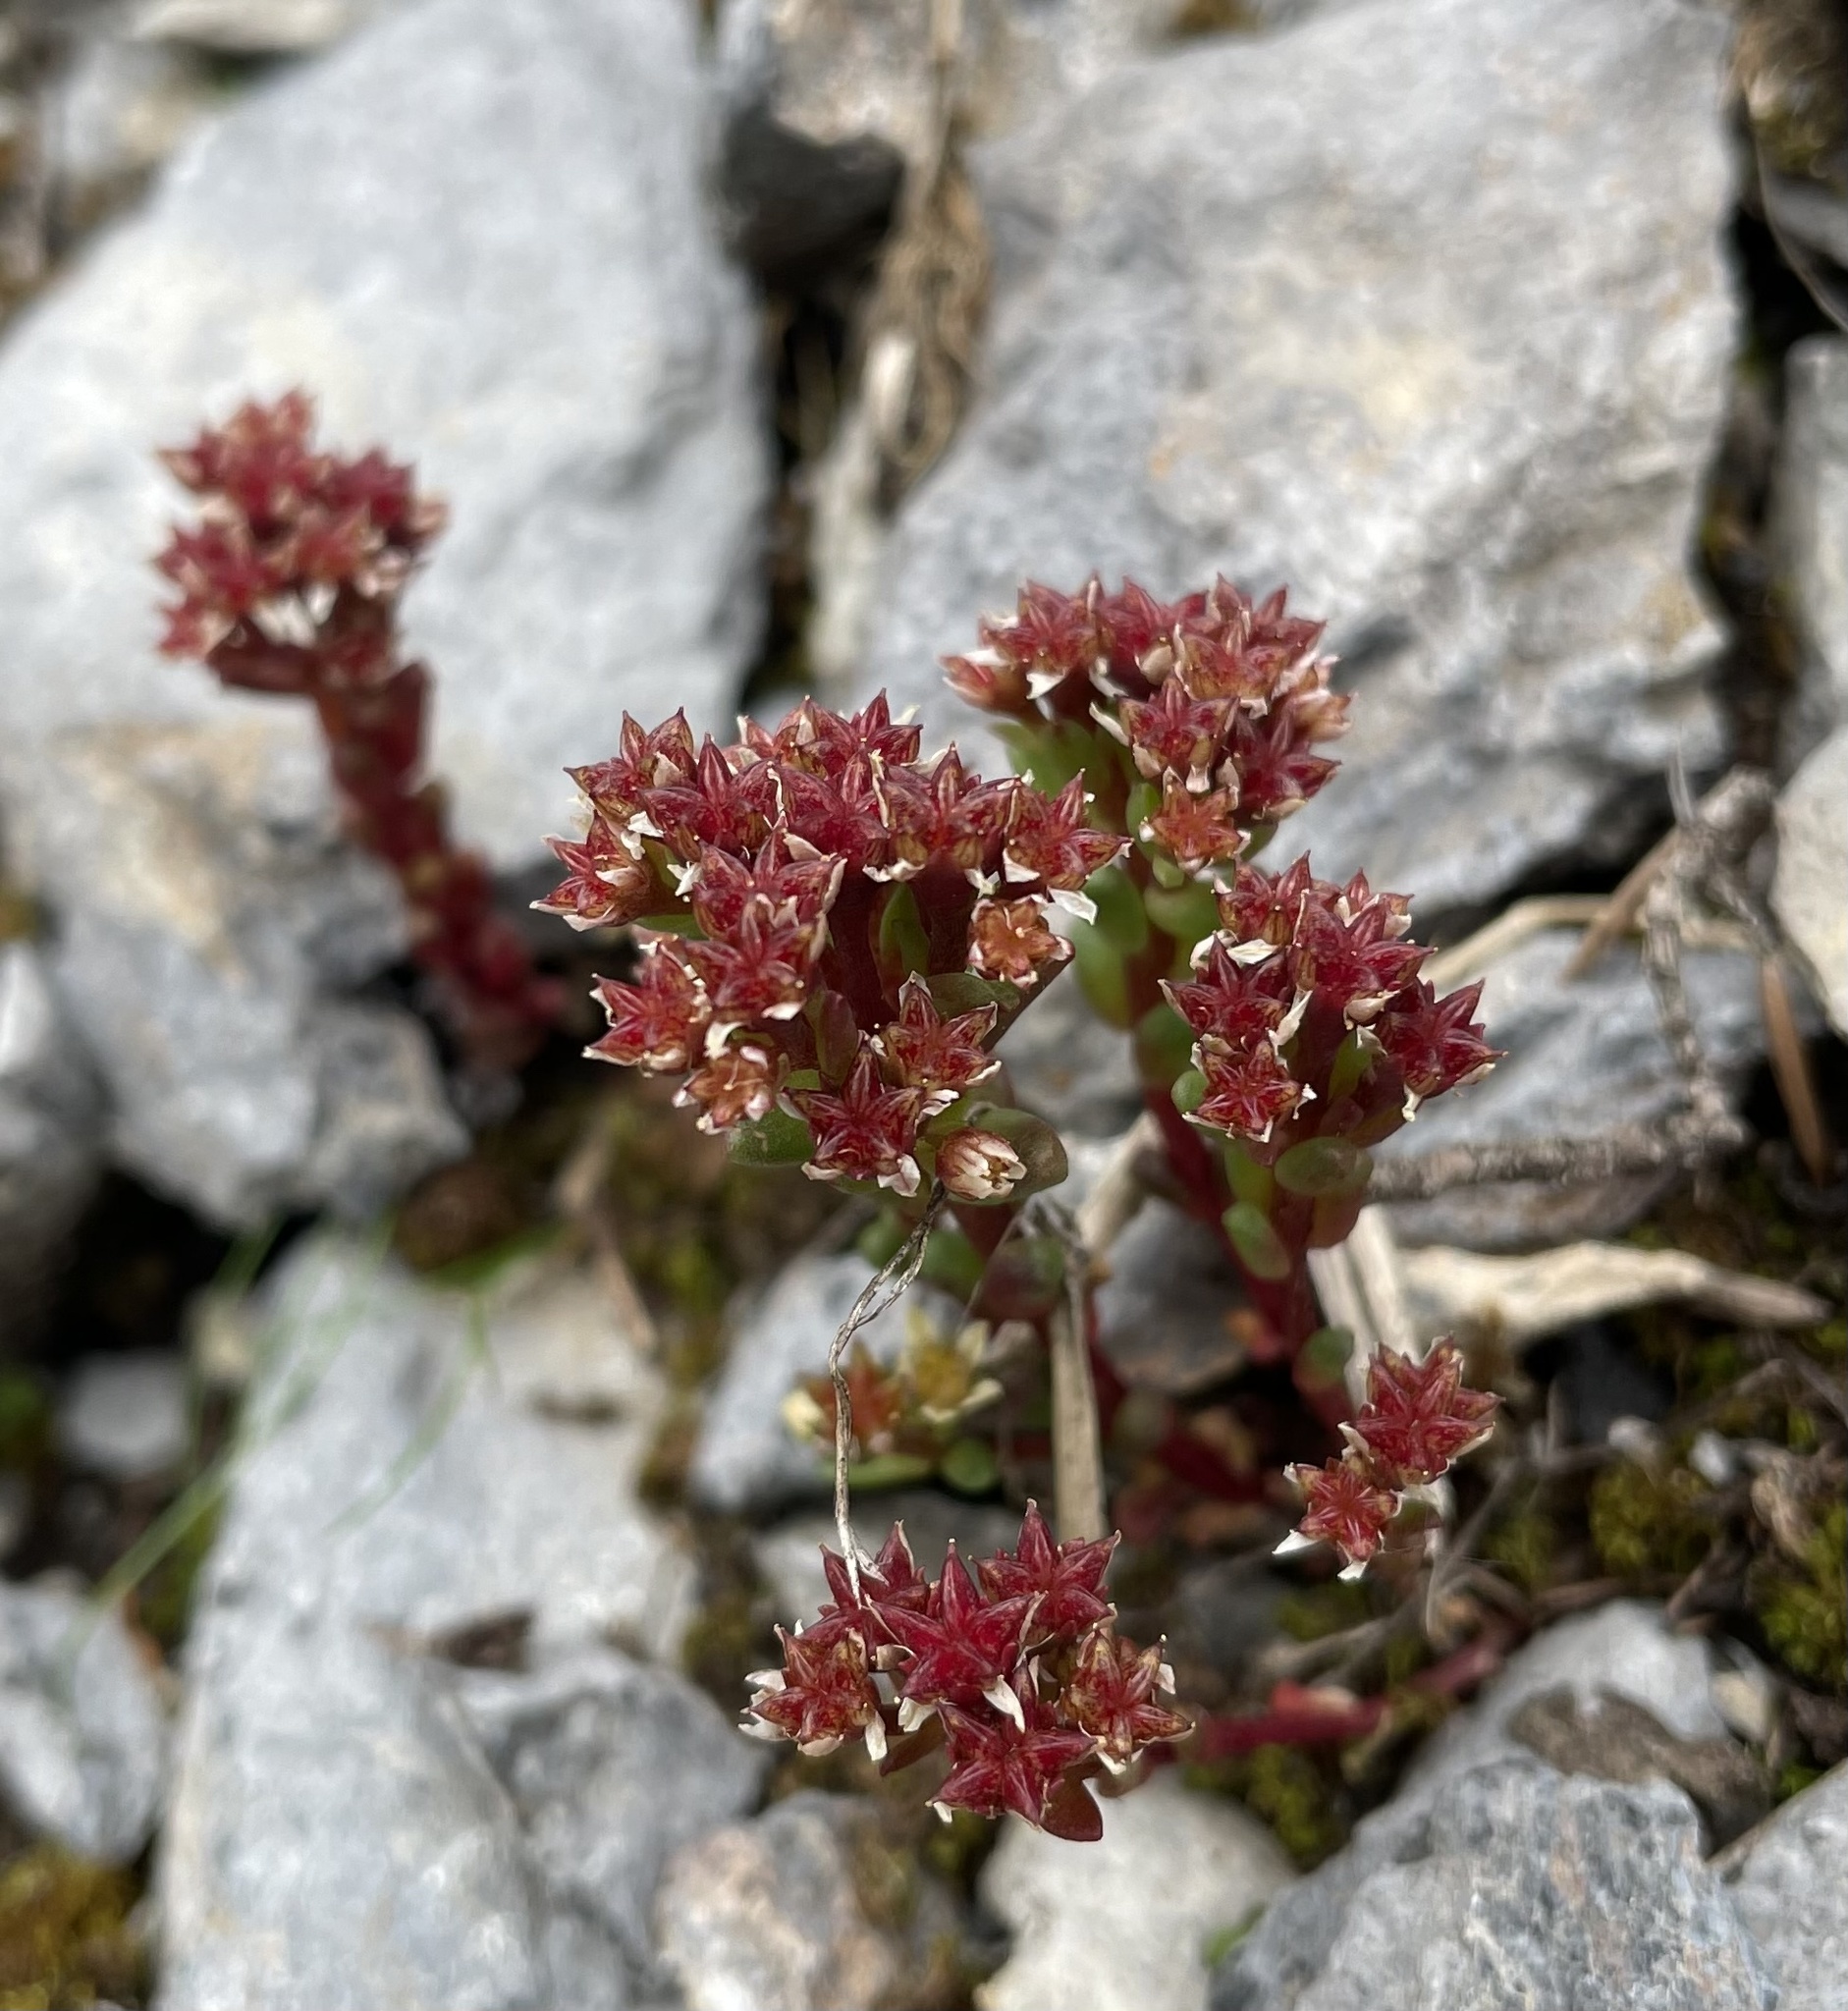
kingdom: Plantae
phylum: Tracheophyta
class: Magnoliopsida
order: Saxifragales
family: Crassulaceae
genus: Sedum
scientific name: Sedum atratum
